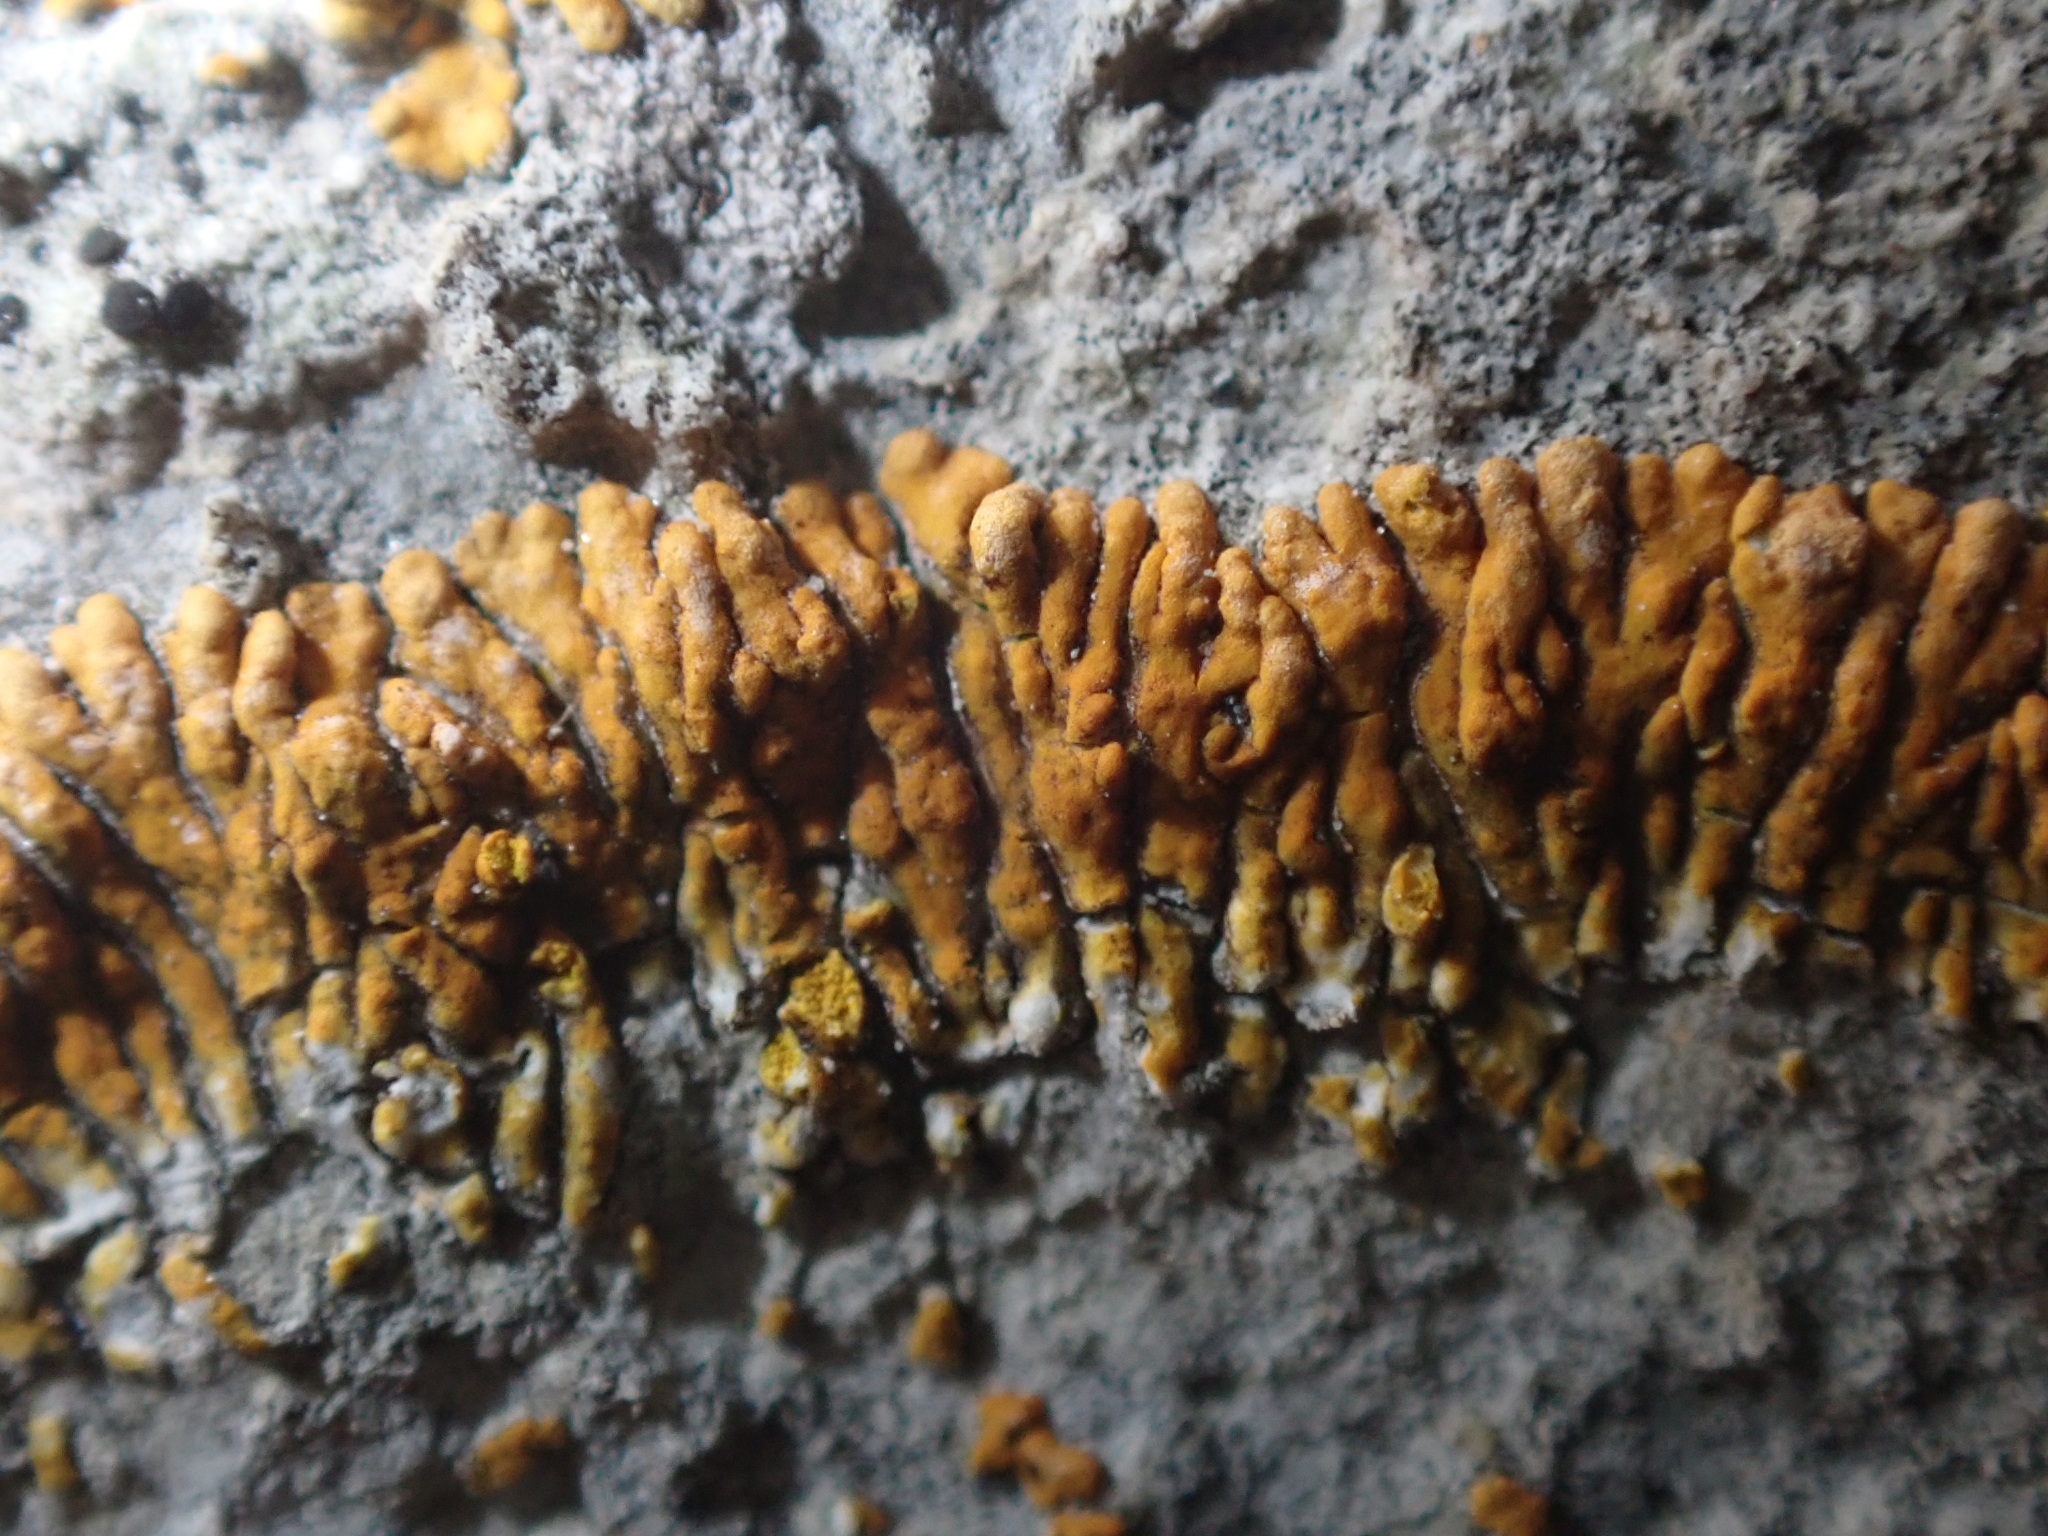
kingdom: Fungi
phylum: Ascomycota
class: Lecanoromycetes
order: Teloschistales
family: Teloschistaceae
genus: Leproplaca
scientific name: Leproplaca cirrochroa
